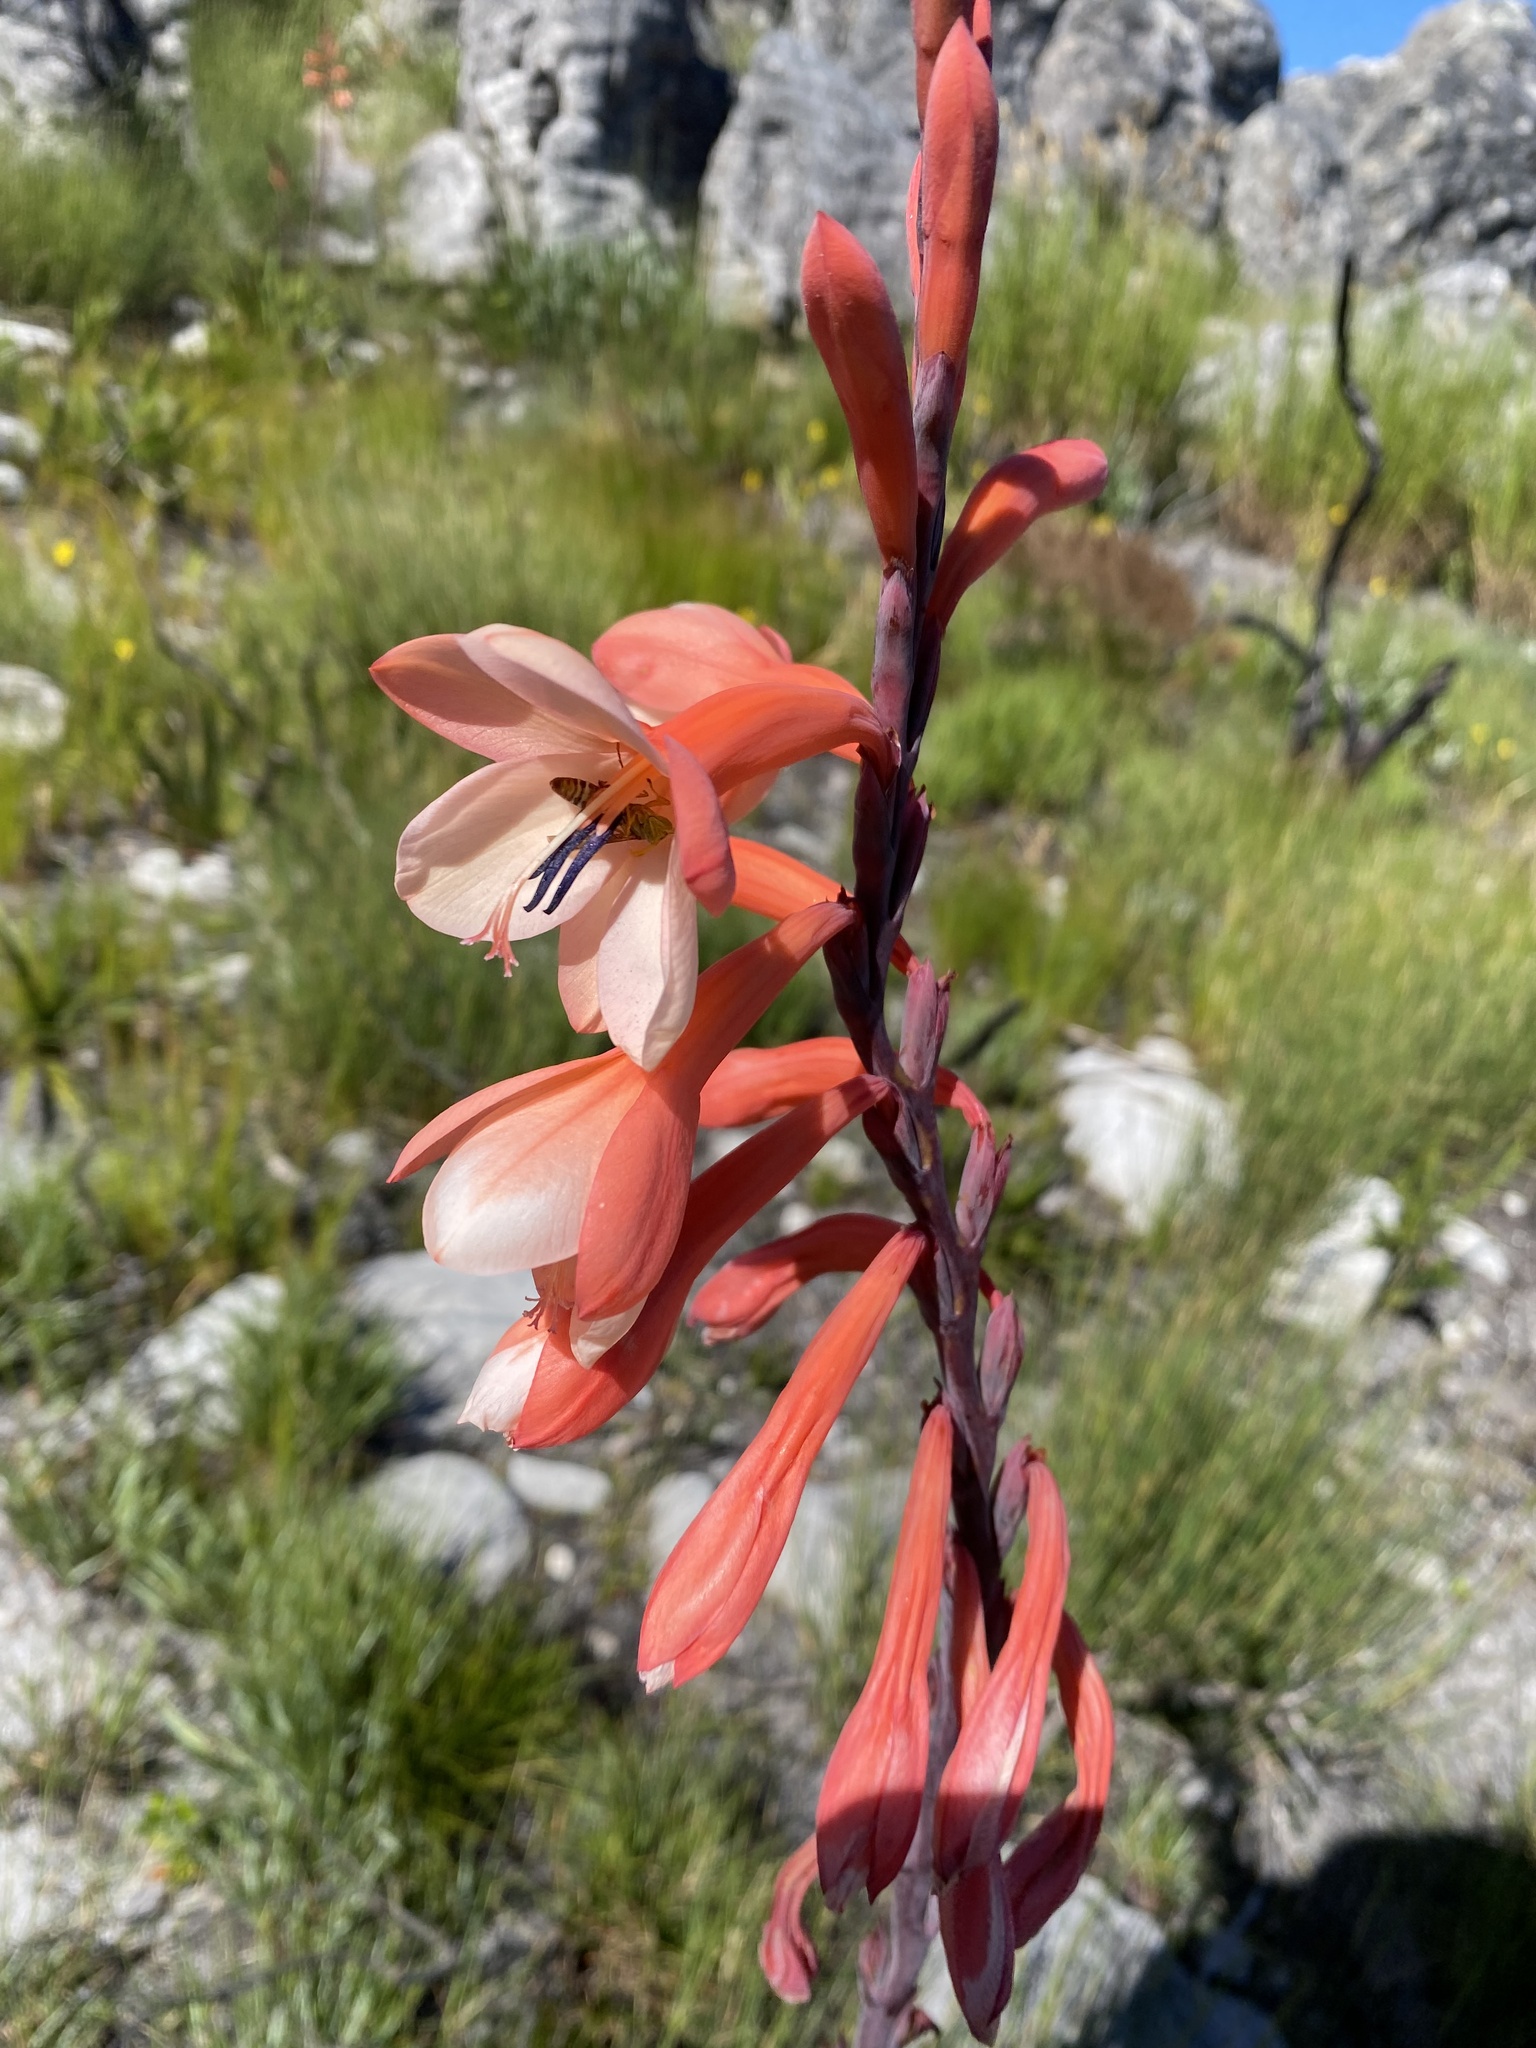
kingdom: Plantae
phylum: Tracheophyta
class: Liliopsida
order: Asparagales
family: Iridaceae
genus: Watsonia
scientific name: Watsonia tabularis
